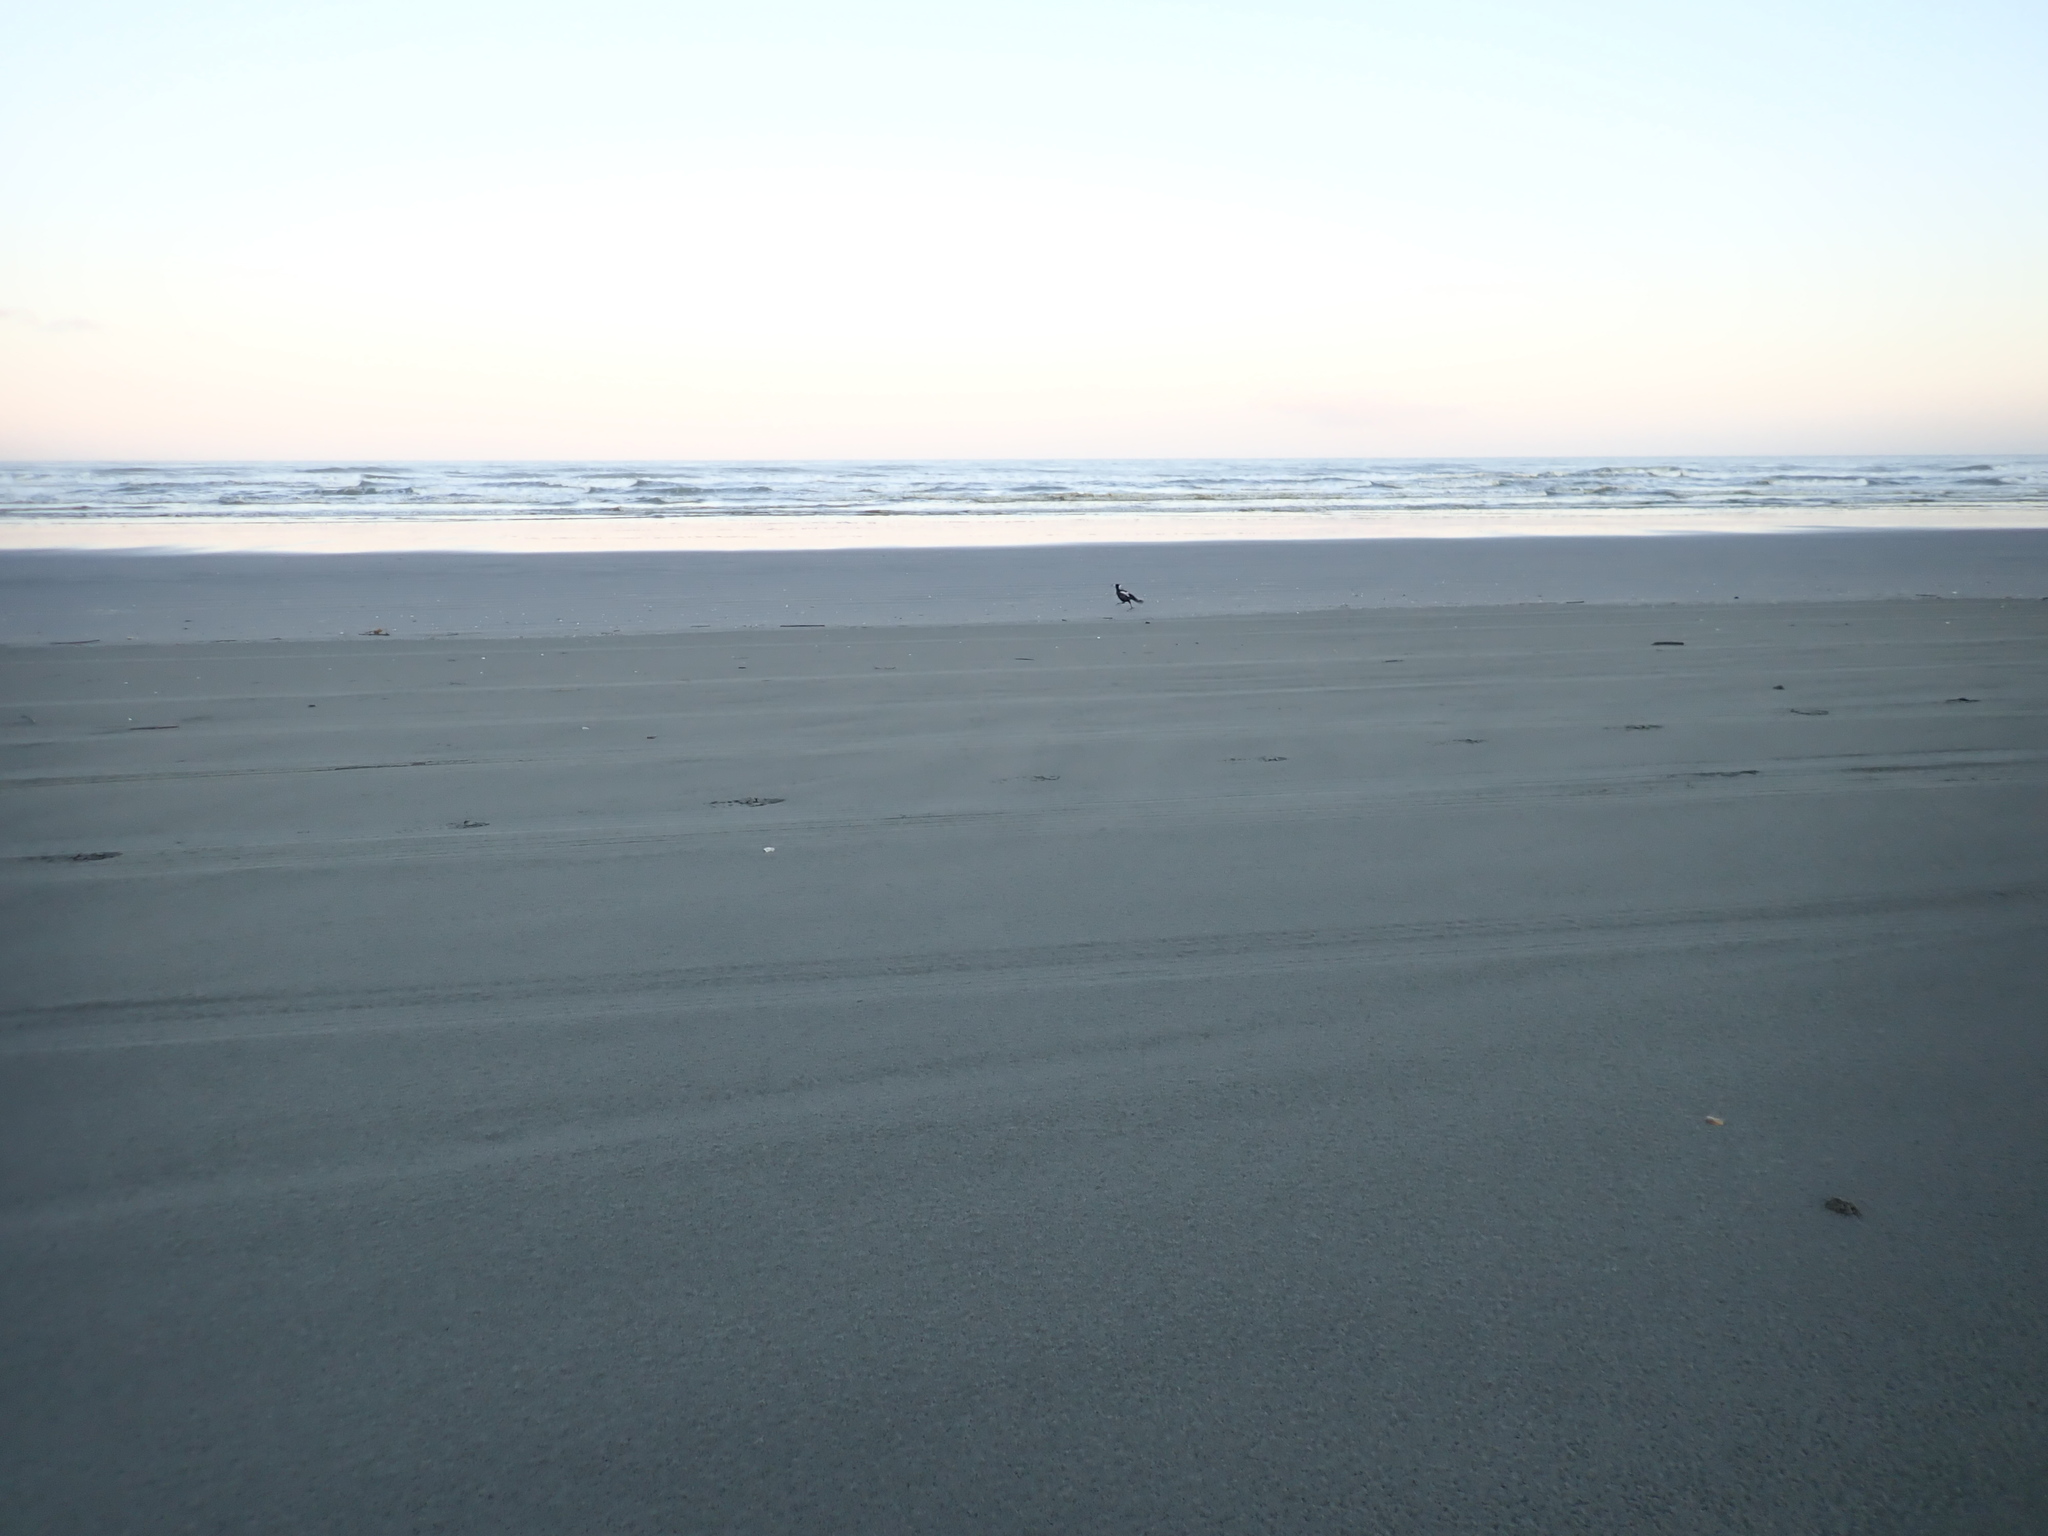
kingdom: Animalia
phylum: Chordata
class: Aves
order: Passeriformes
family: Cracticidae
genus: Gymnorhina
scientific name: Gymnorhina tibicen
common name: Australian magpie
